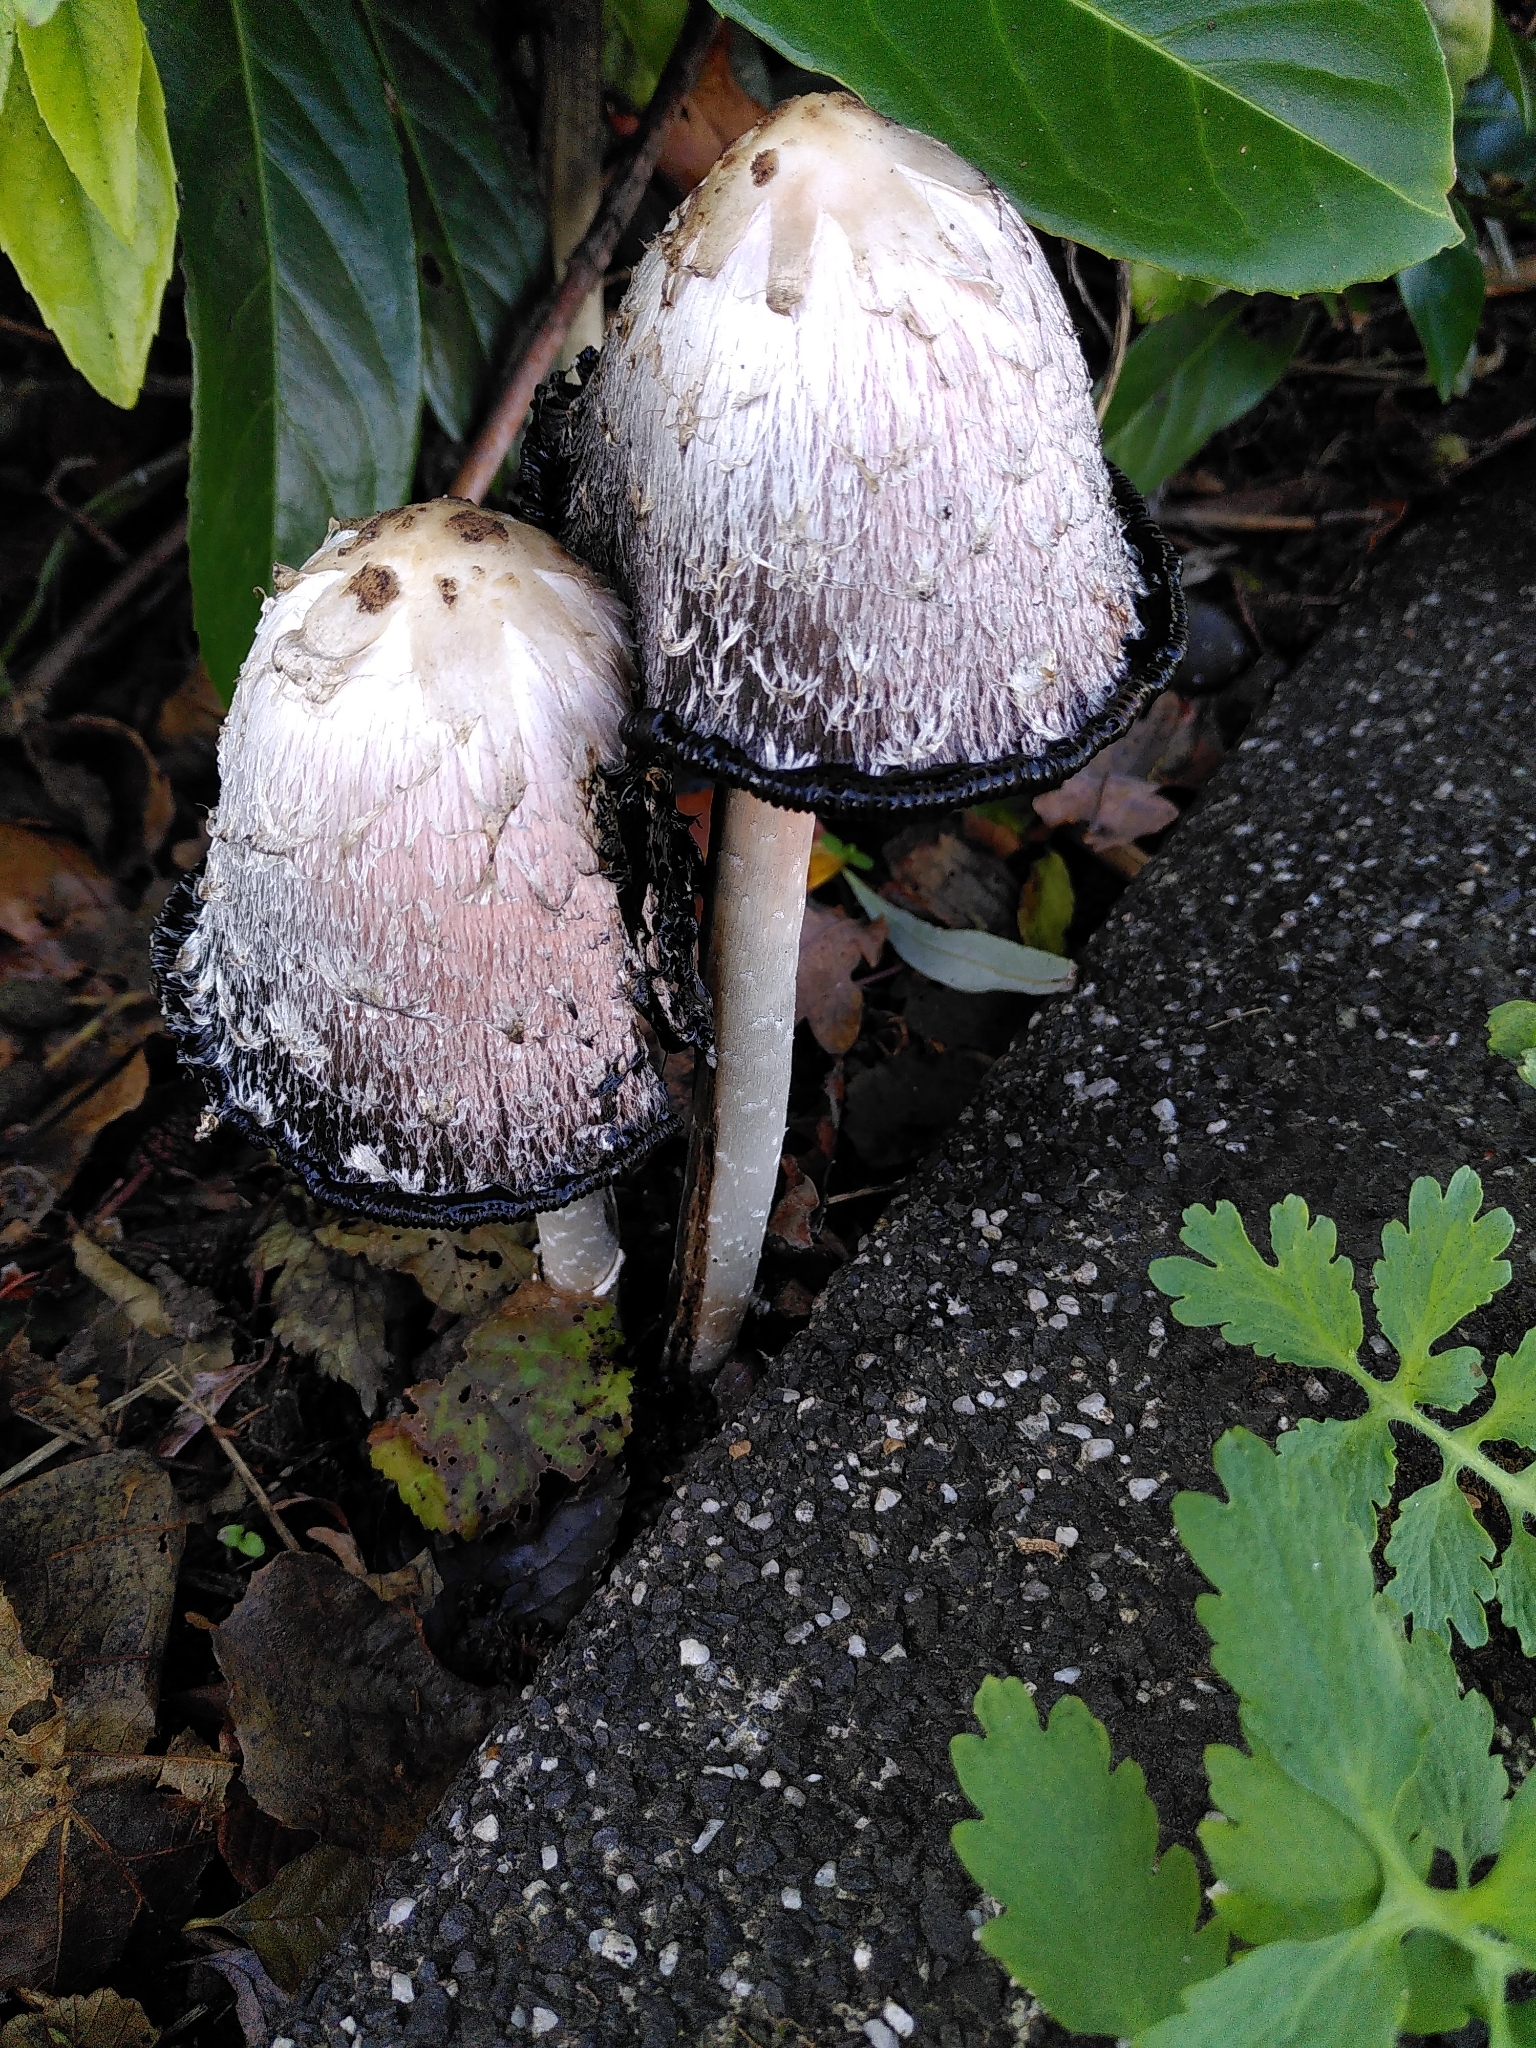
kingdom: Fungi
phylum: Basidiomycota
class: Agaricomycetes
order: Agaricales
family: Agaricaceae
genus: Coprinus
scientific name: Coprinus comatus
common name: Lawyer's wig
